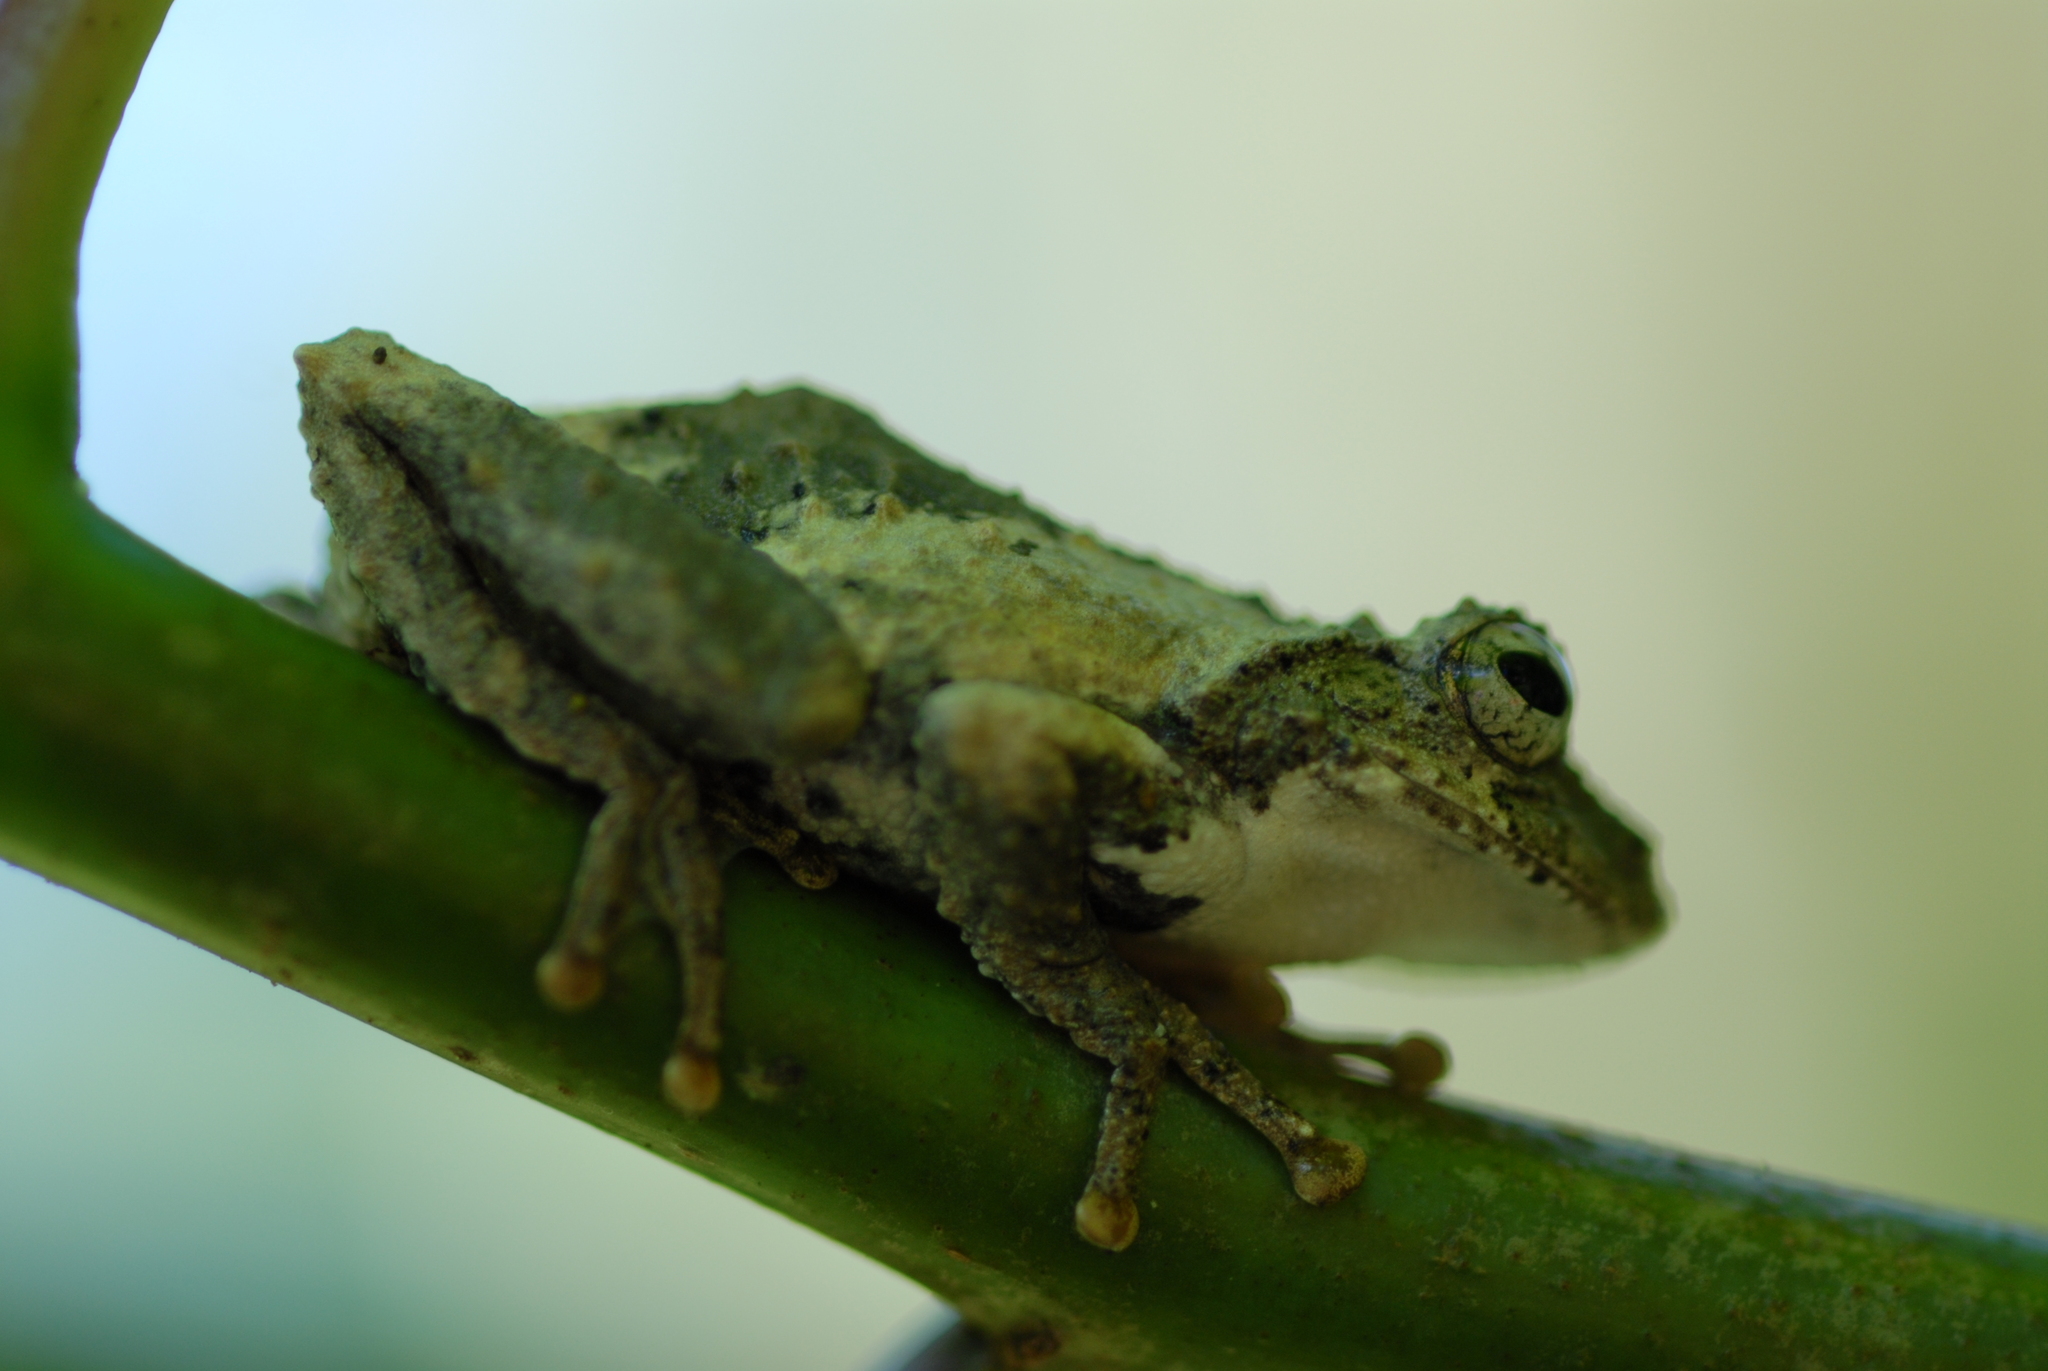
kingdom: Animalia
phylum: Chordata
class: Amphibia
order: Anura
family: Rhacophoridae
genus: Kurixalus
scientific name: Kurixalus idiootocus
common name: Temple treefrog
